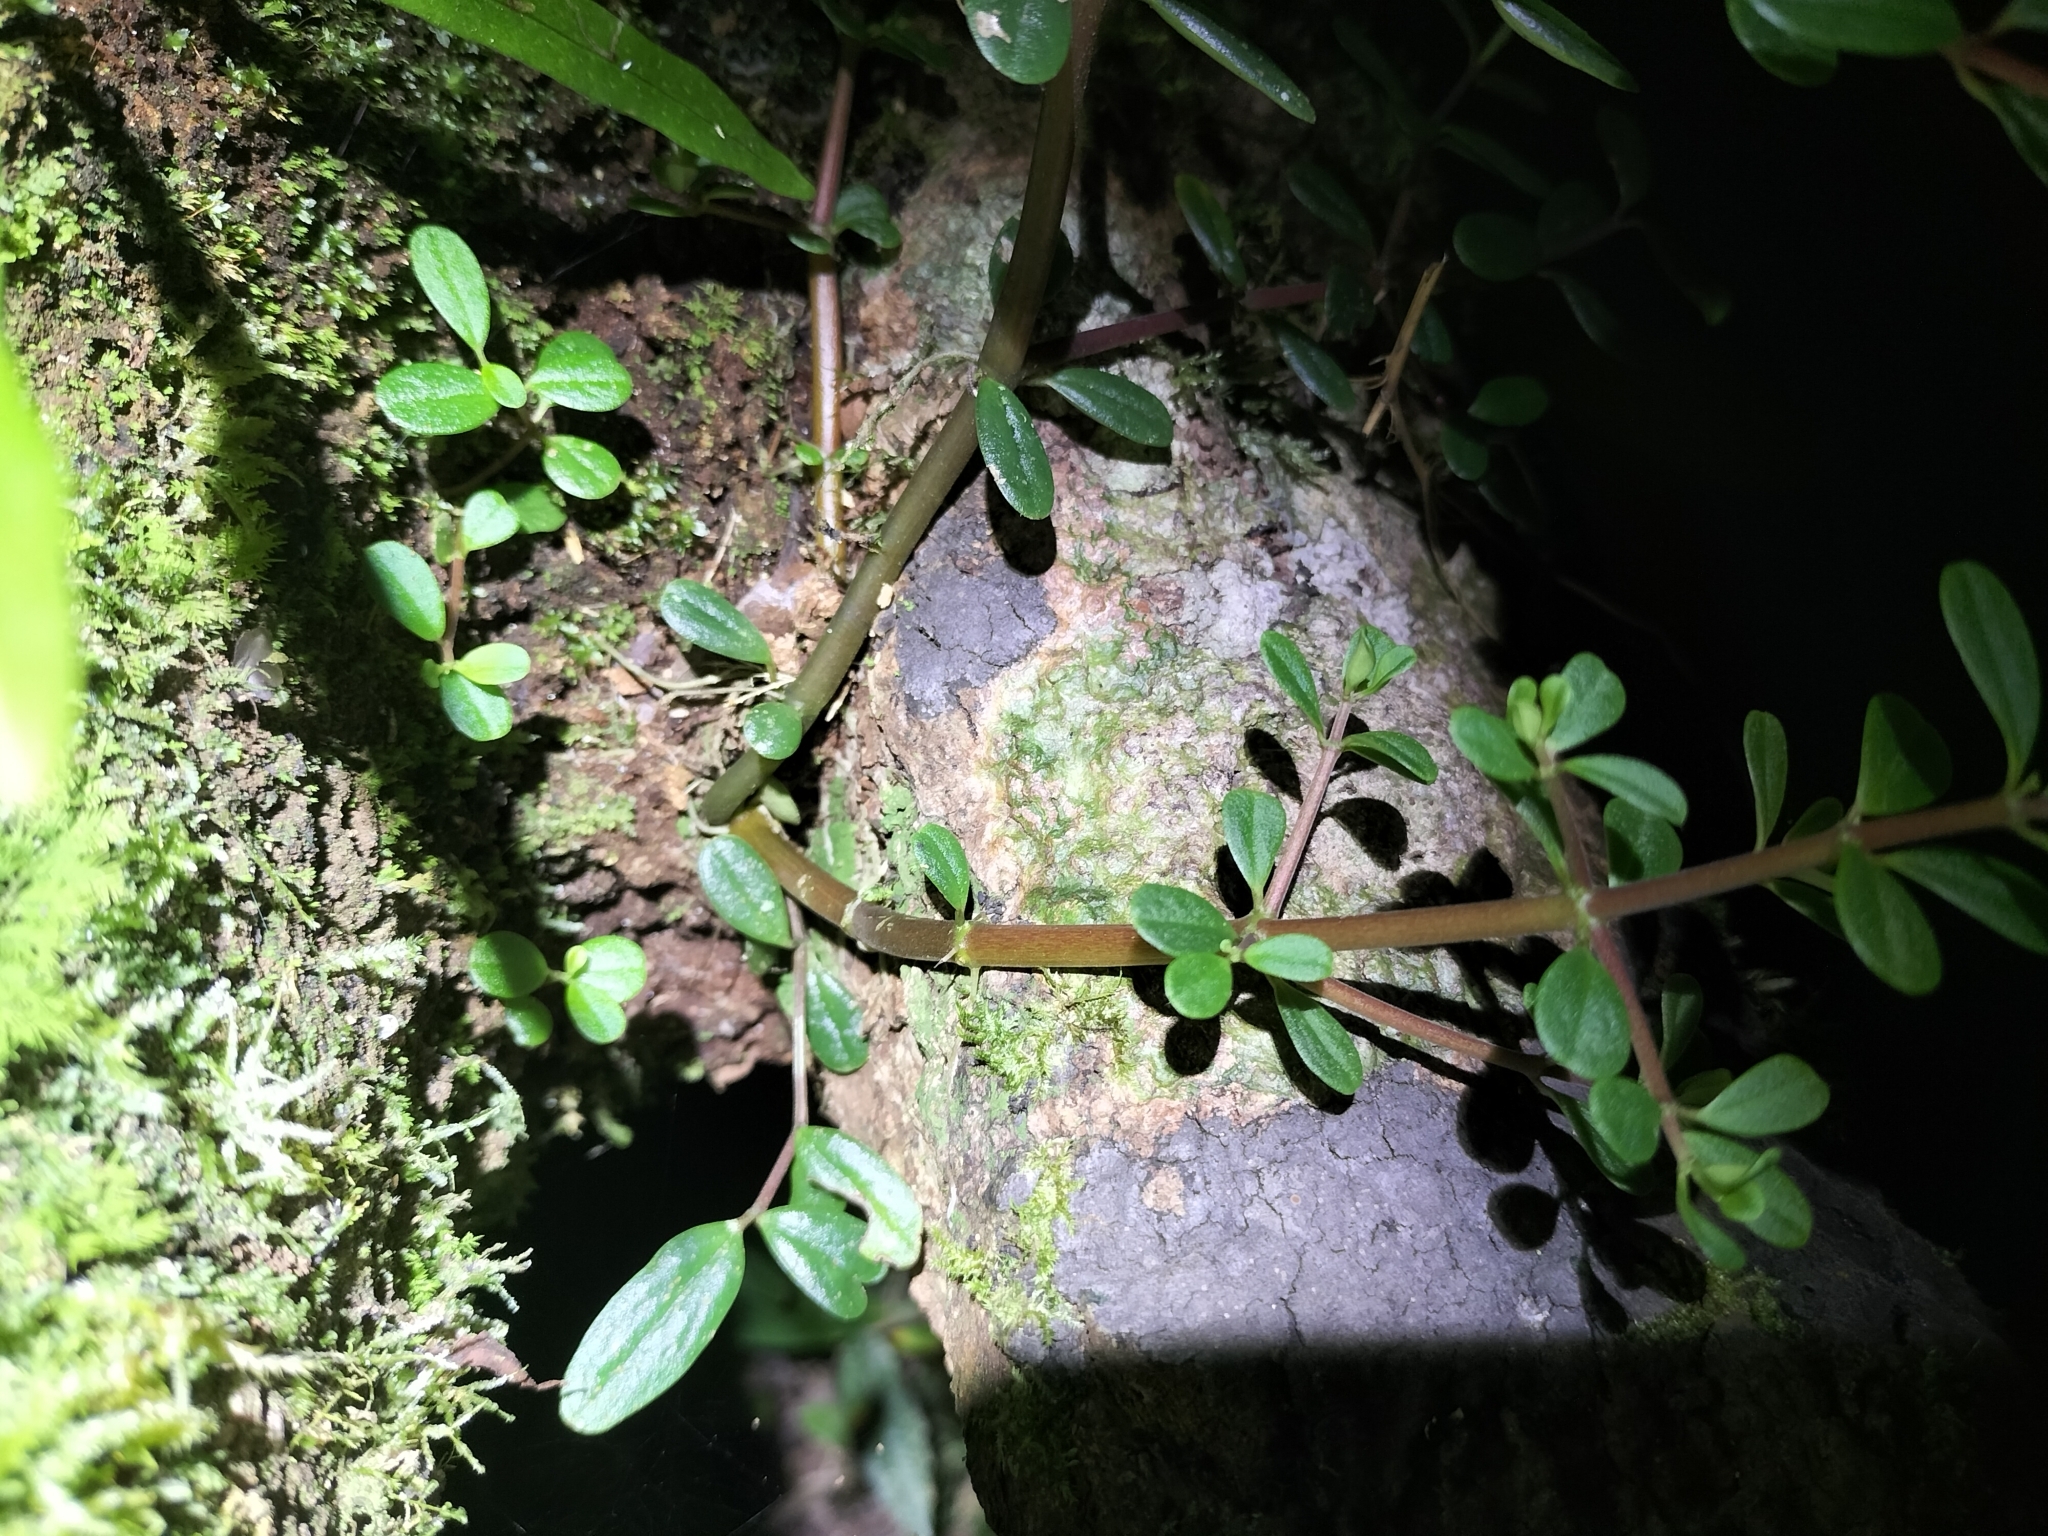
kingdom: Plantae
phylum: Tracheophyta
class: Magnoliopsida
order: Piperales
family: Piperaceae
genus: Peperomia
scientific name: Peperomia enervis
